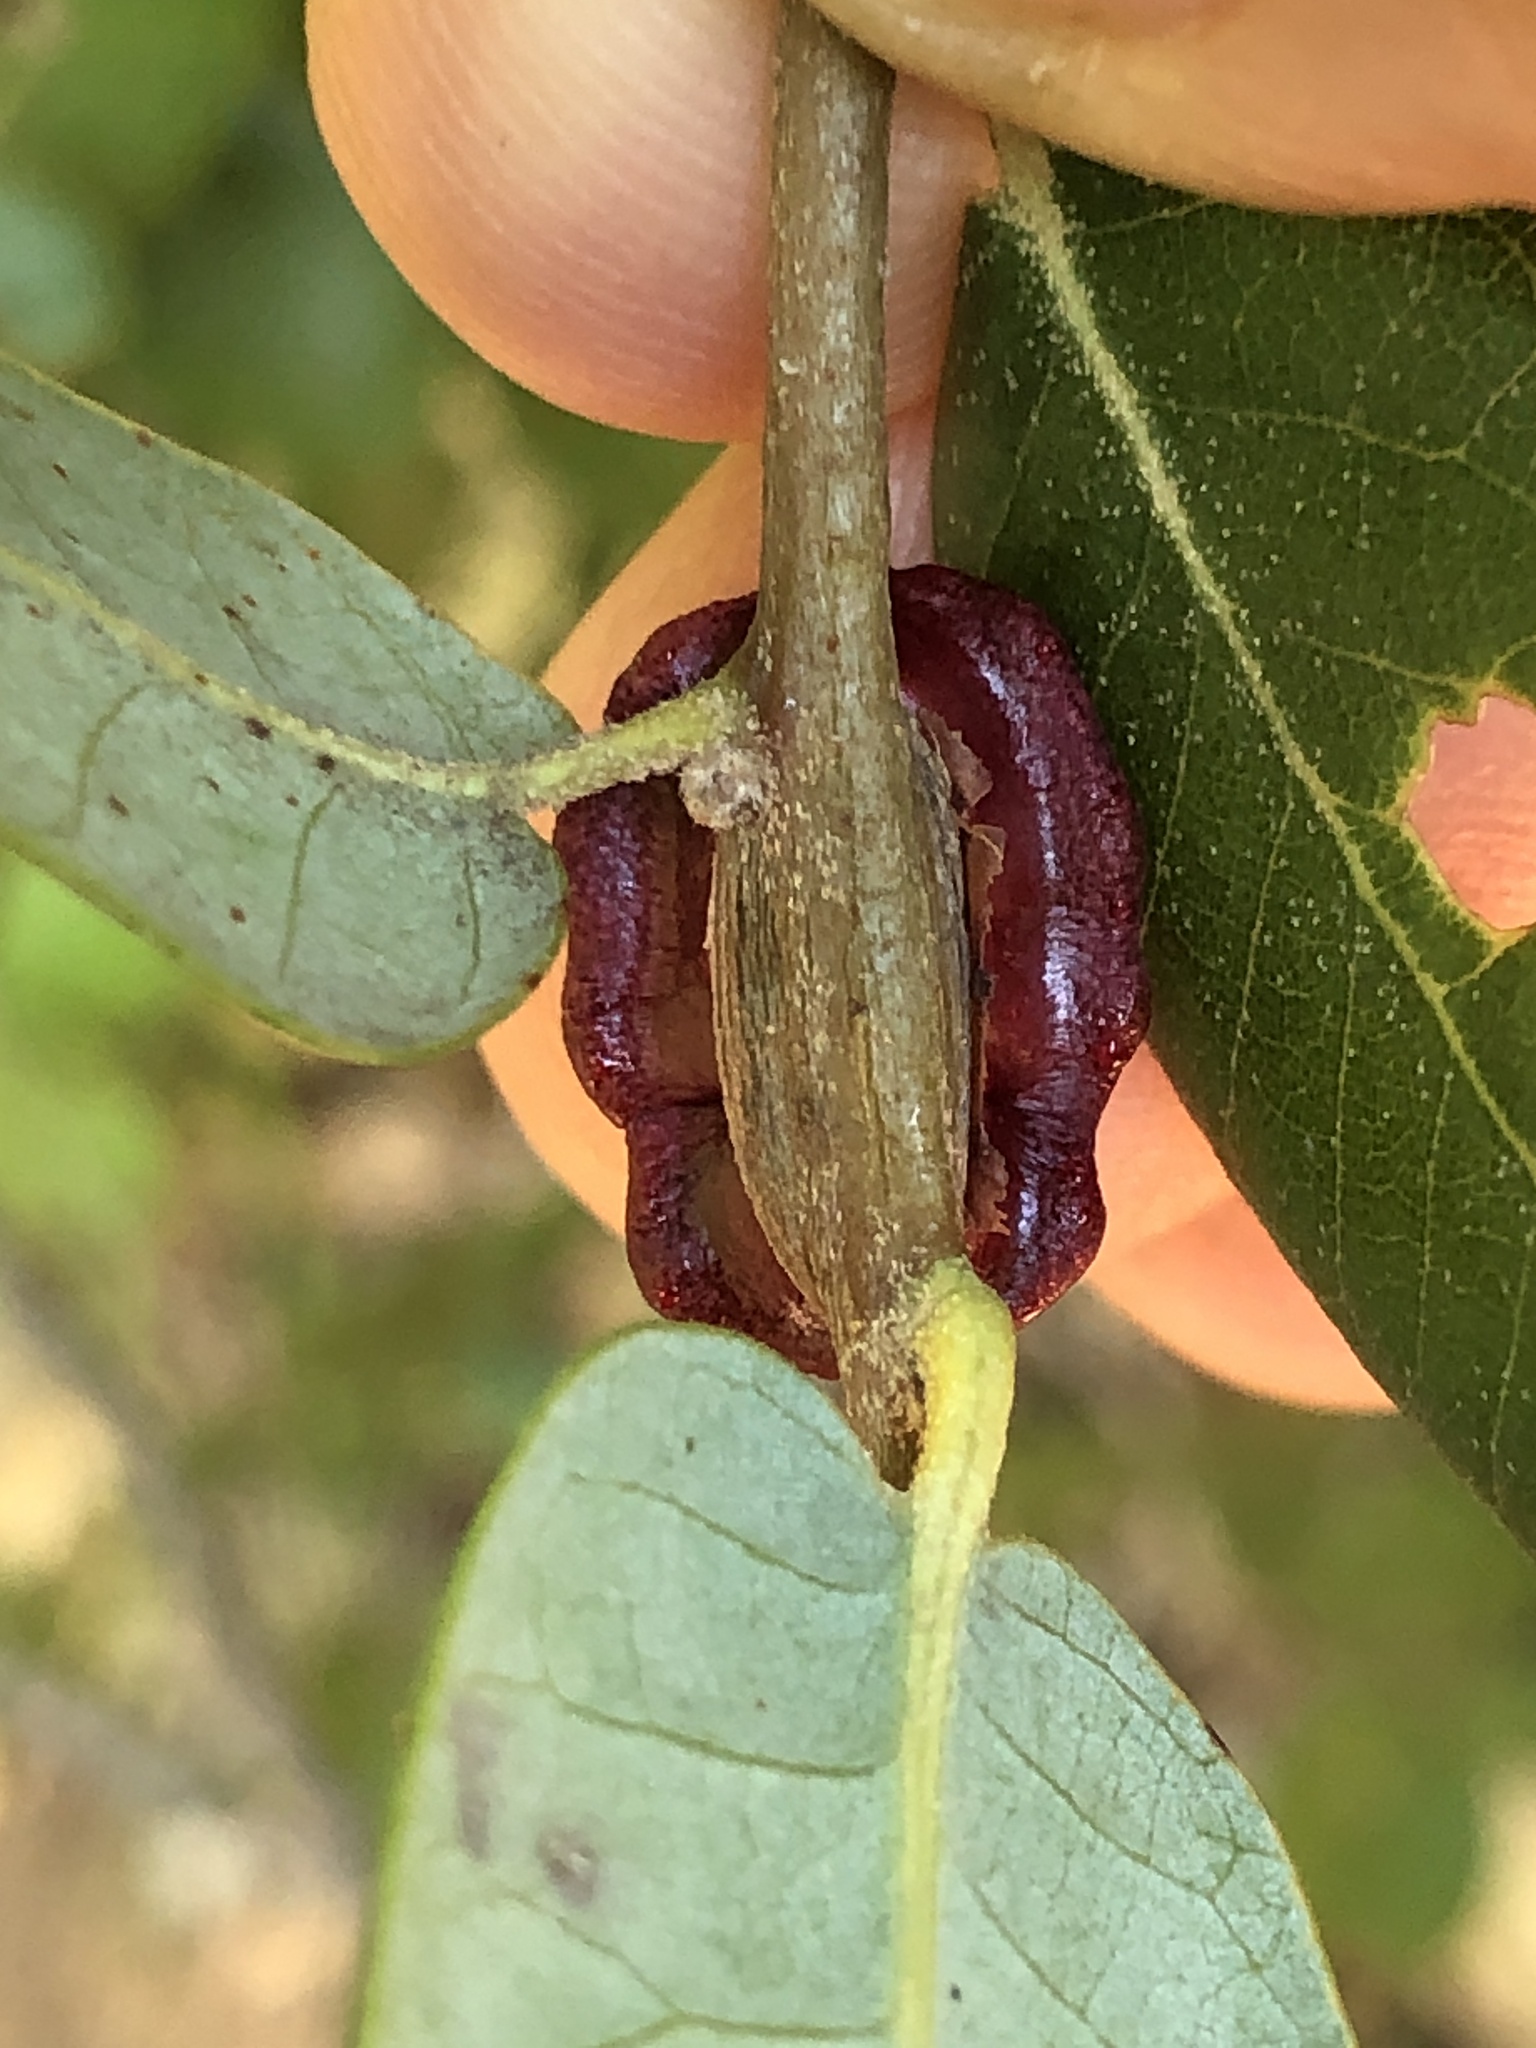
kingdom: Animalia
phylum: Arthropoda
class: Insecta
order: Hymenoptera
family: Cynipidae
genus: Disholandricus
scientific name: Disholandricus
